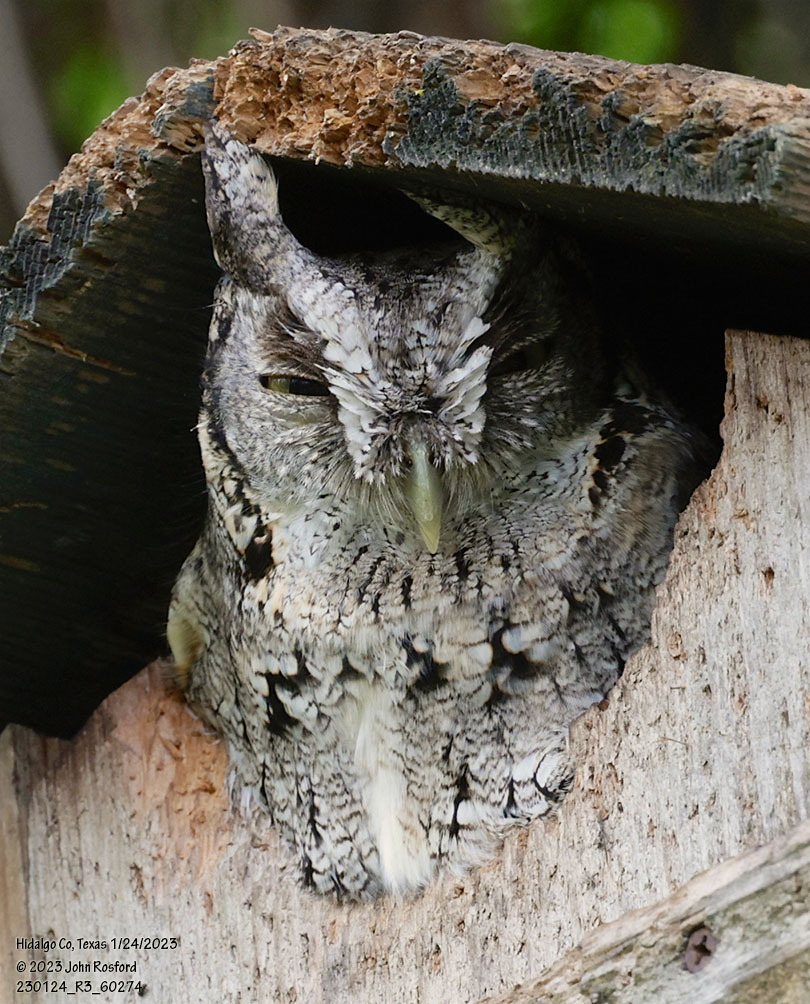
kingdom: Animalia
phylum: Chordata
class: Aves
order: Strigiformes
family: Strigidae
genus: Megascops
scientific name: Megascops asio
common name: Eastern screech-owl
